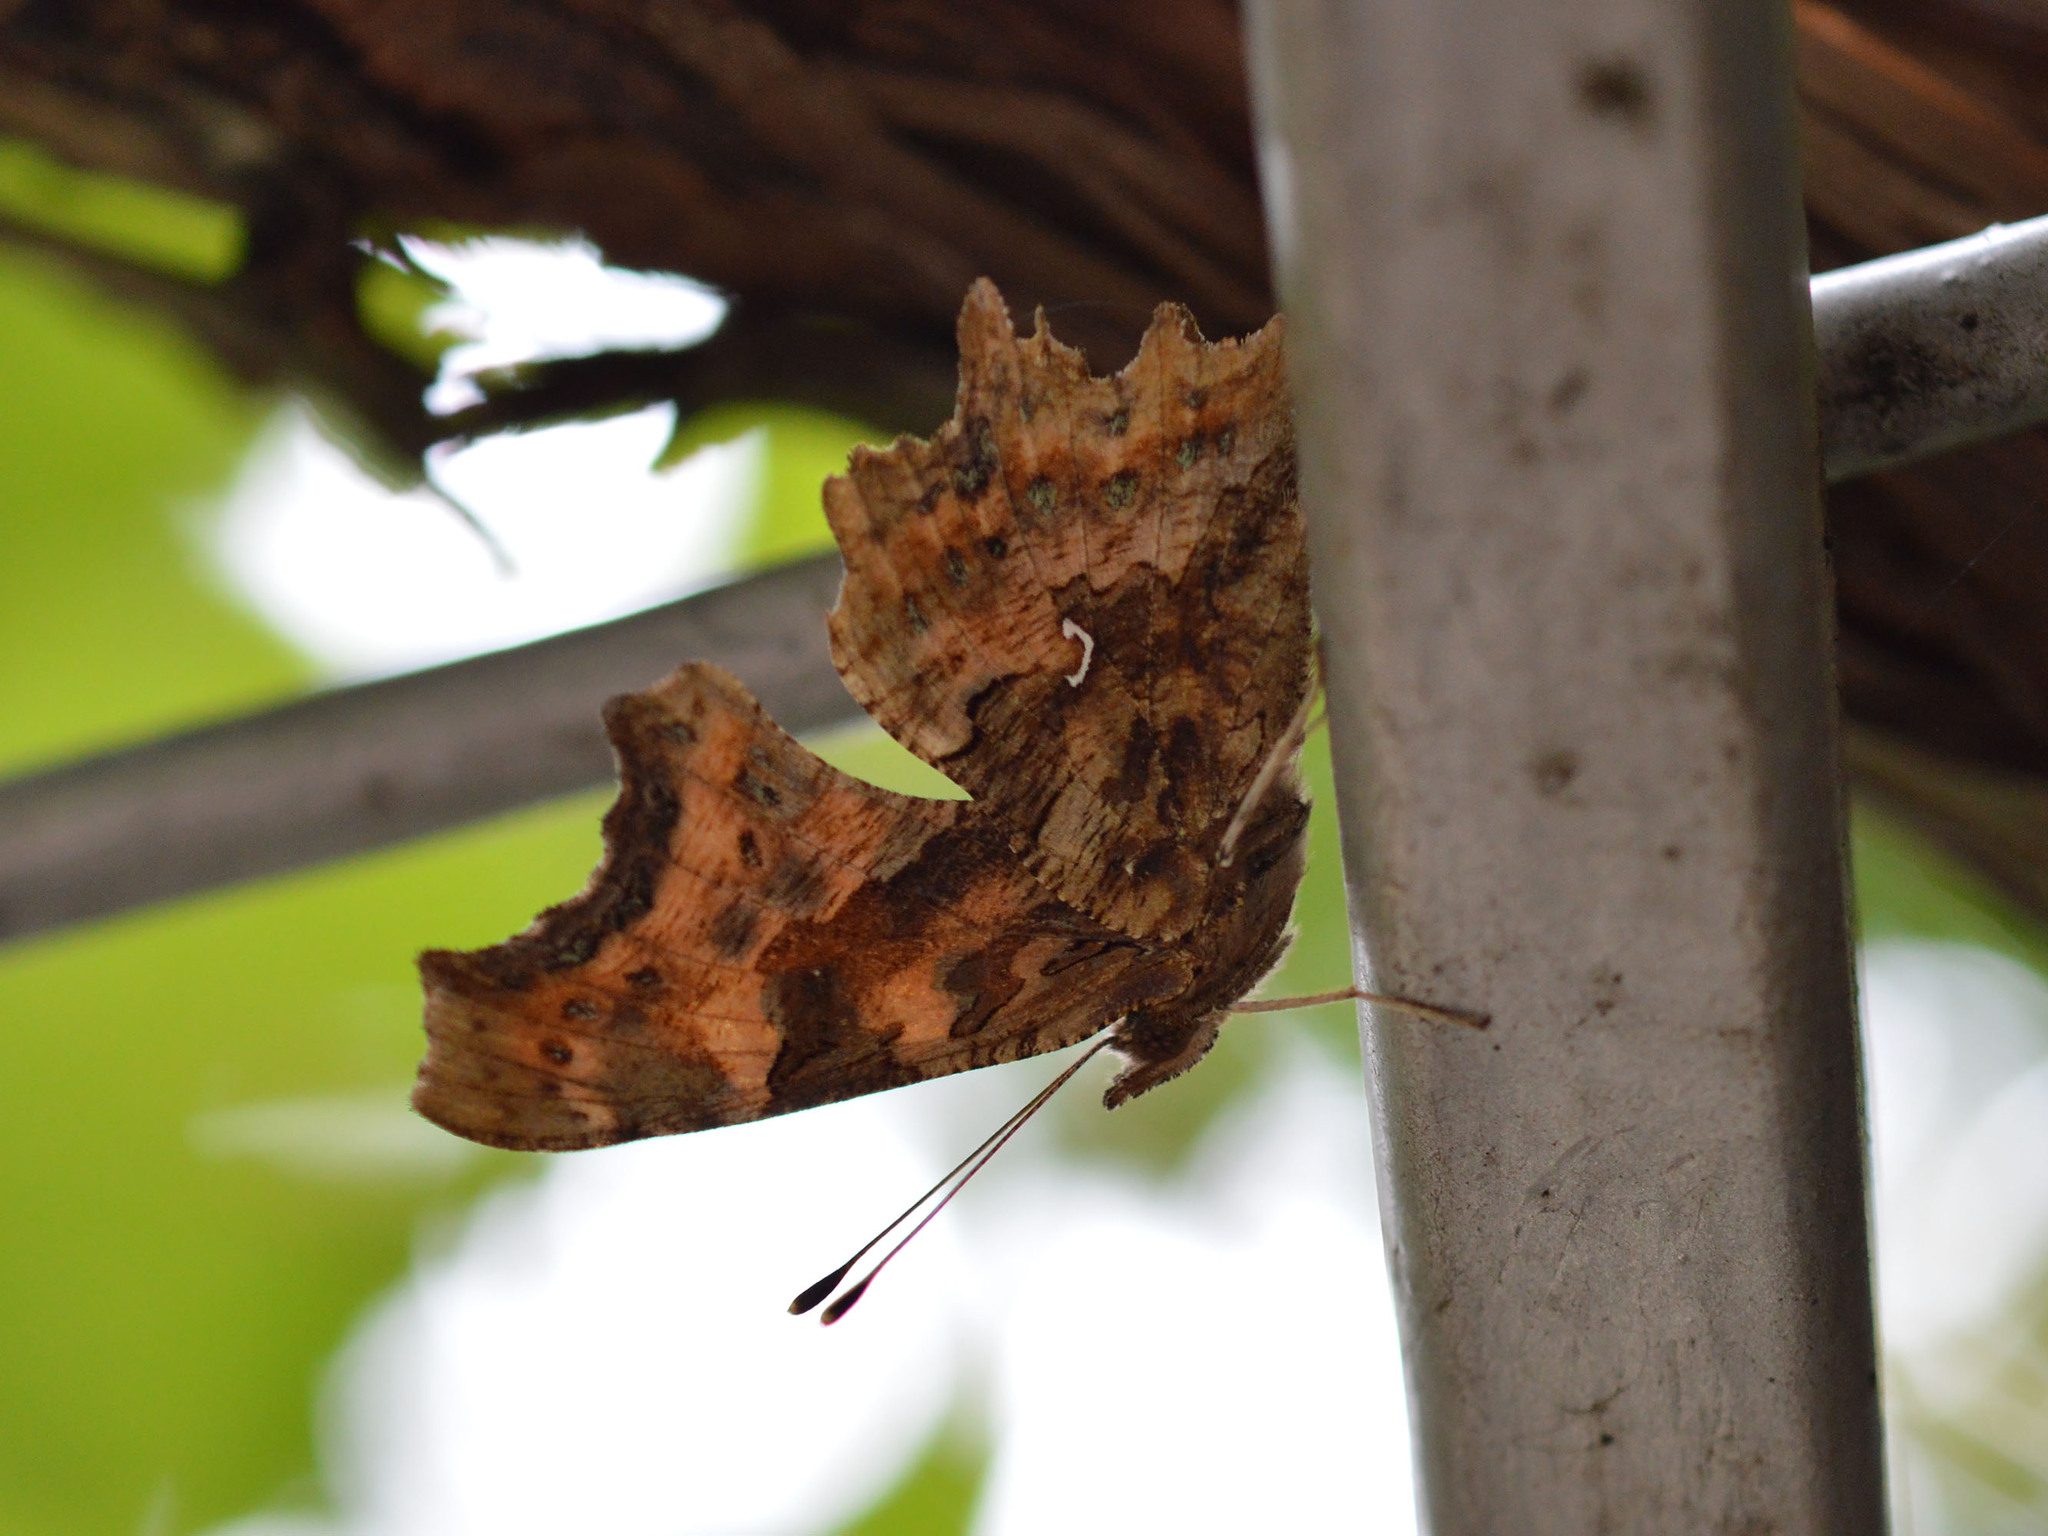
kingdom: Animalia
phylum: Arthropoda
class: Insecta
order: Lepidoptera
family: Nymphalidae
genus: Polygonia
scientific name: Polygonia c-album
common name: Comma
